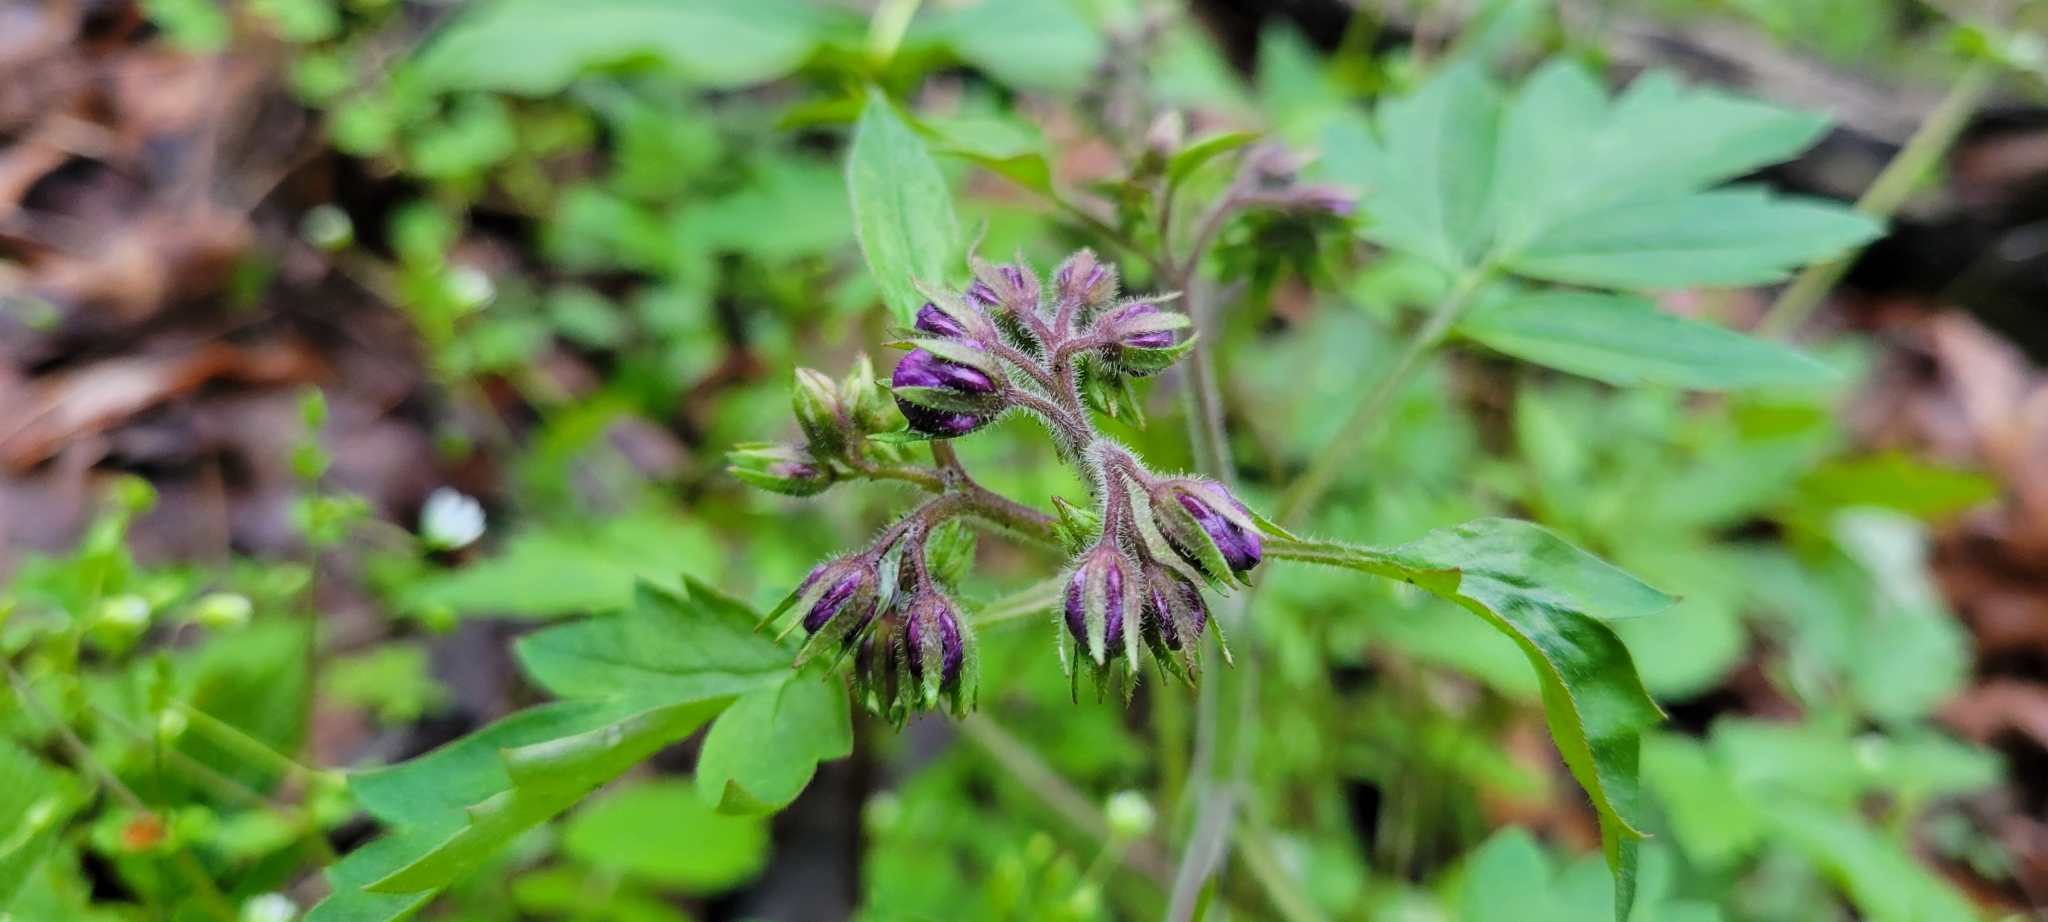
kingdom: Plantae
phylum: Tracheophyta
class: Magnoliopsida
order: Boraginales
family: Hydrophyllaceae
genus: Phacelia
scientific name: Phacelia bipinnatifida
